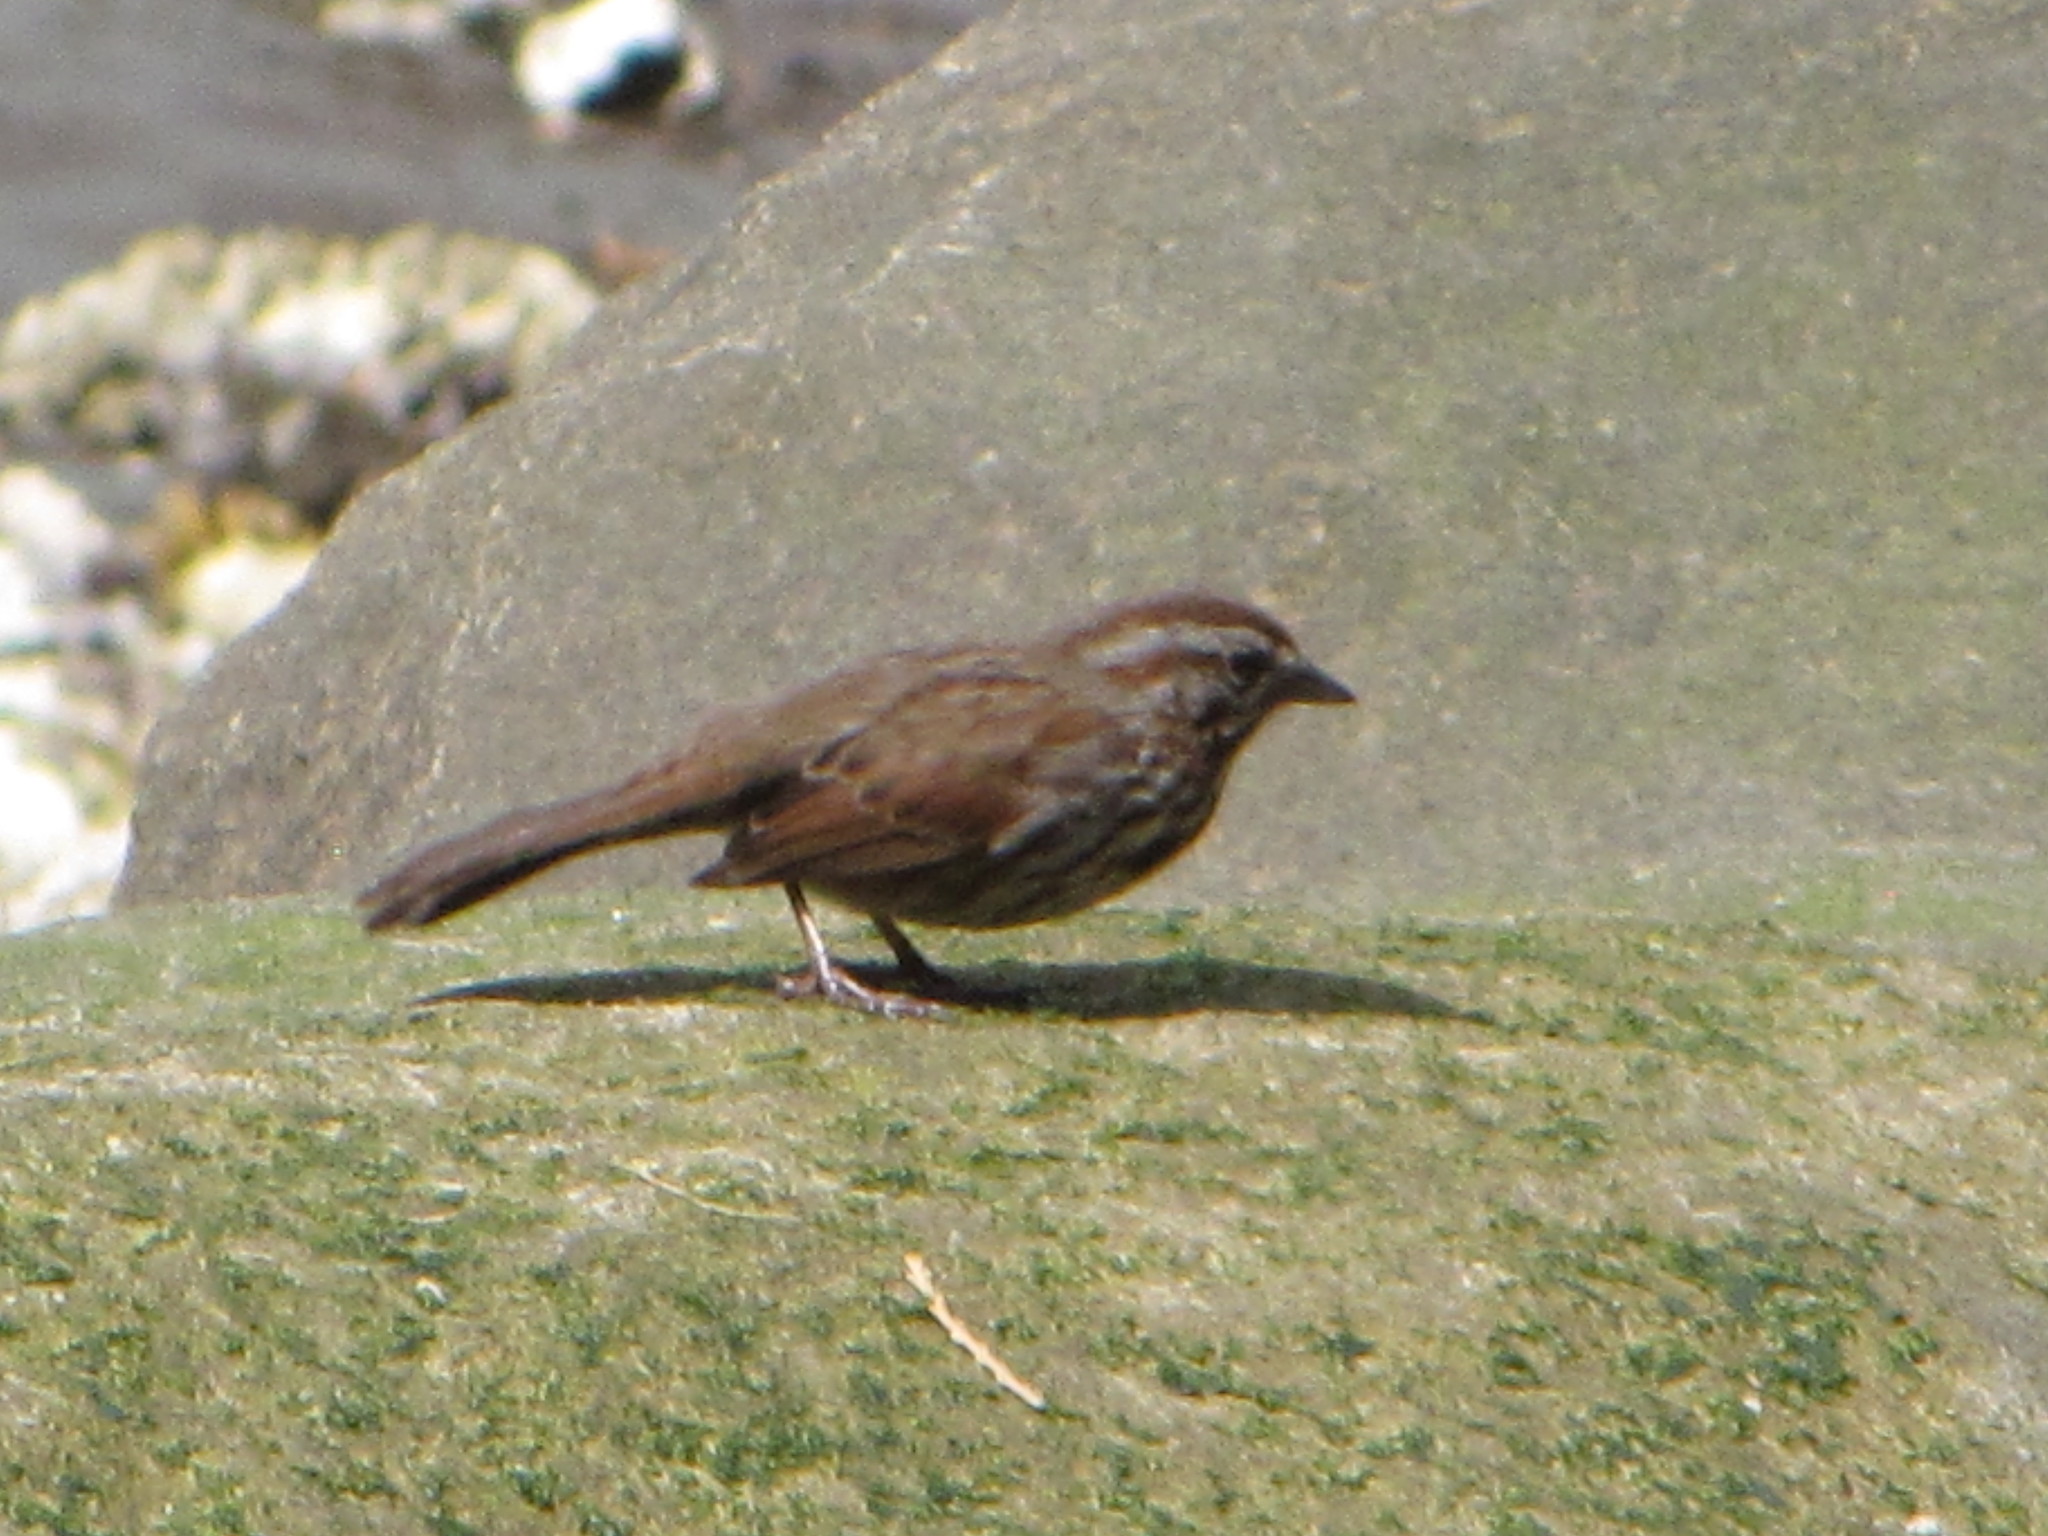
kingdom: Animalia
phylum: Chordata
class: Aves
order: Passeriformes
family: Passerellidae
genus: Melospiza
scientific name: Melospiza melodia
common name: Song sparrow
